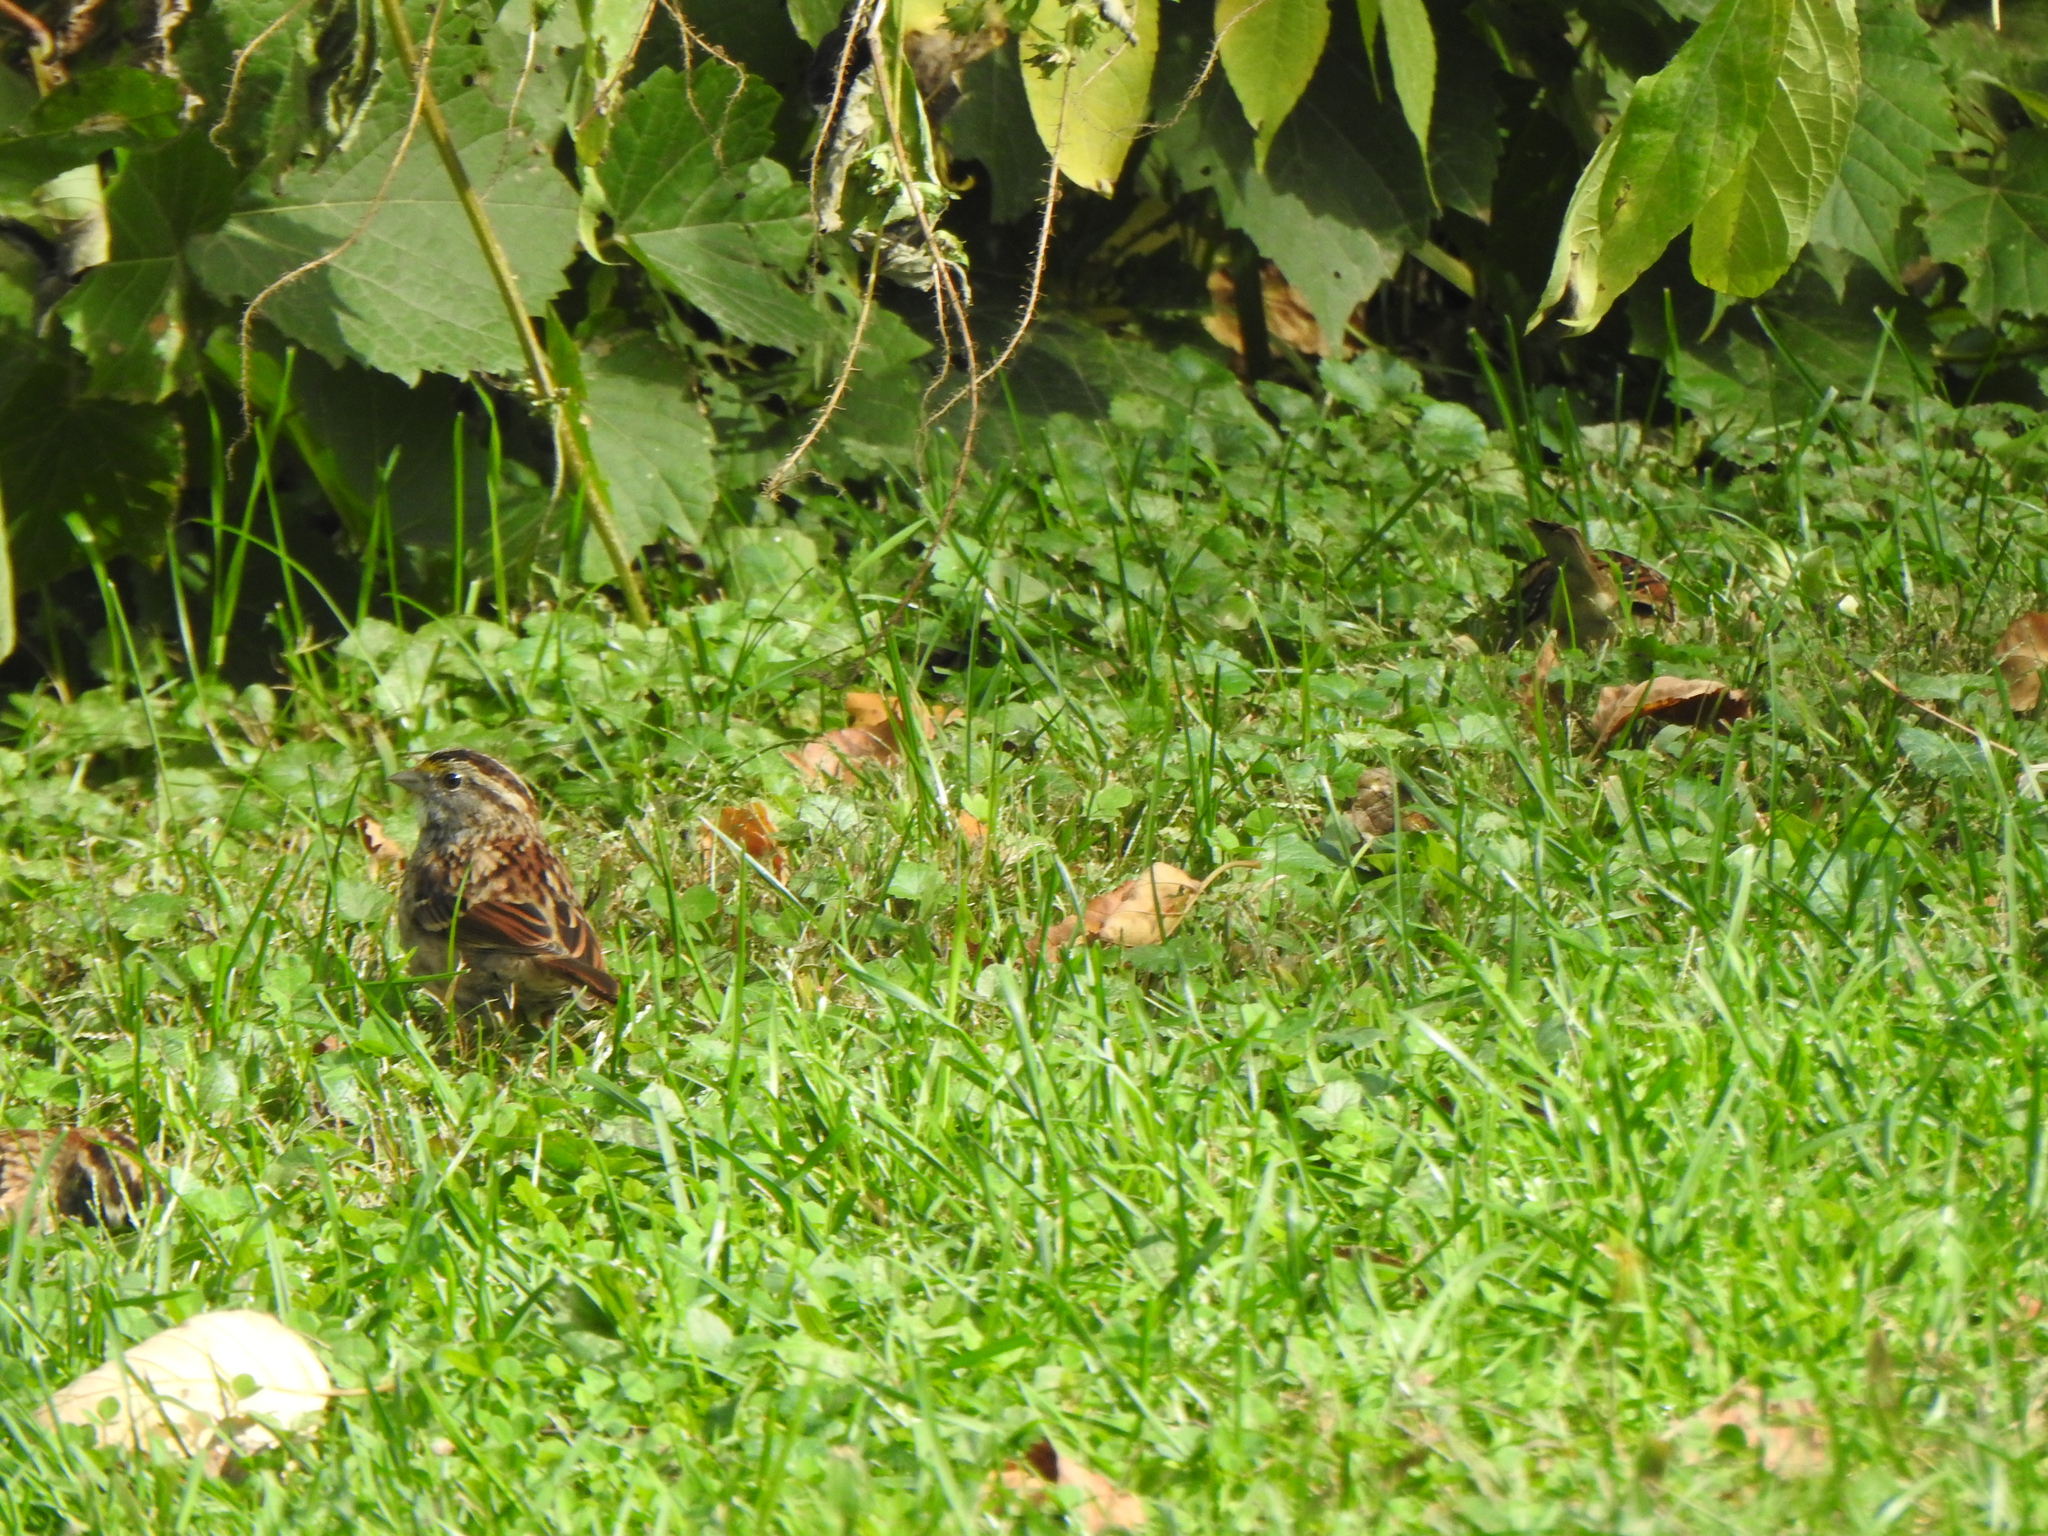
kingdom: Animalia
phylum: Chordata
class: Aves
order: Passeriformes
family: Passerellidae
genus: Zonotrichia
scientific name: Zonotrichia albicollis
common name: White-throated sparrow
